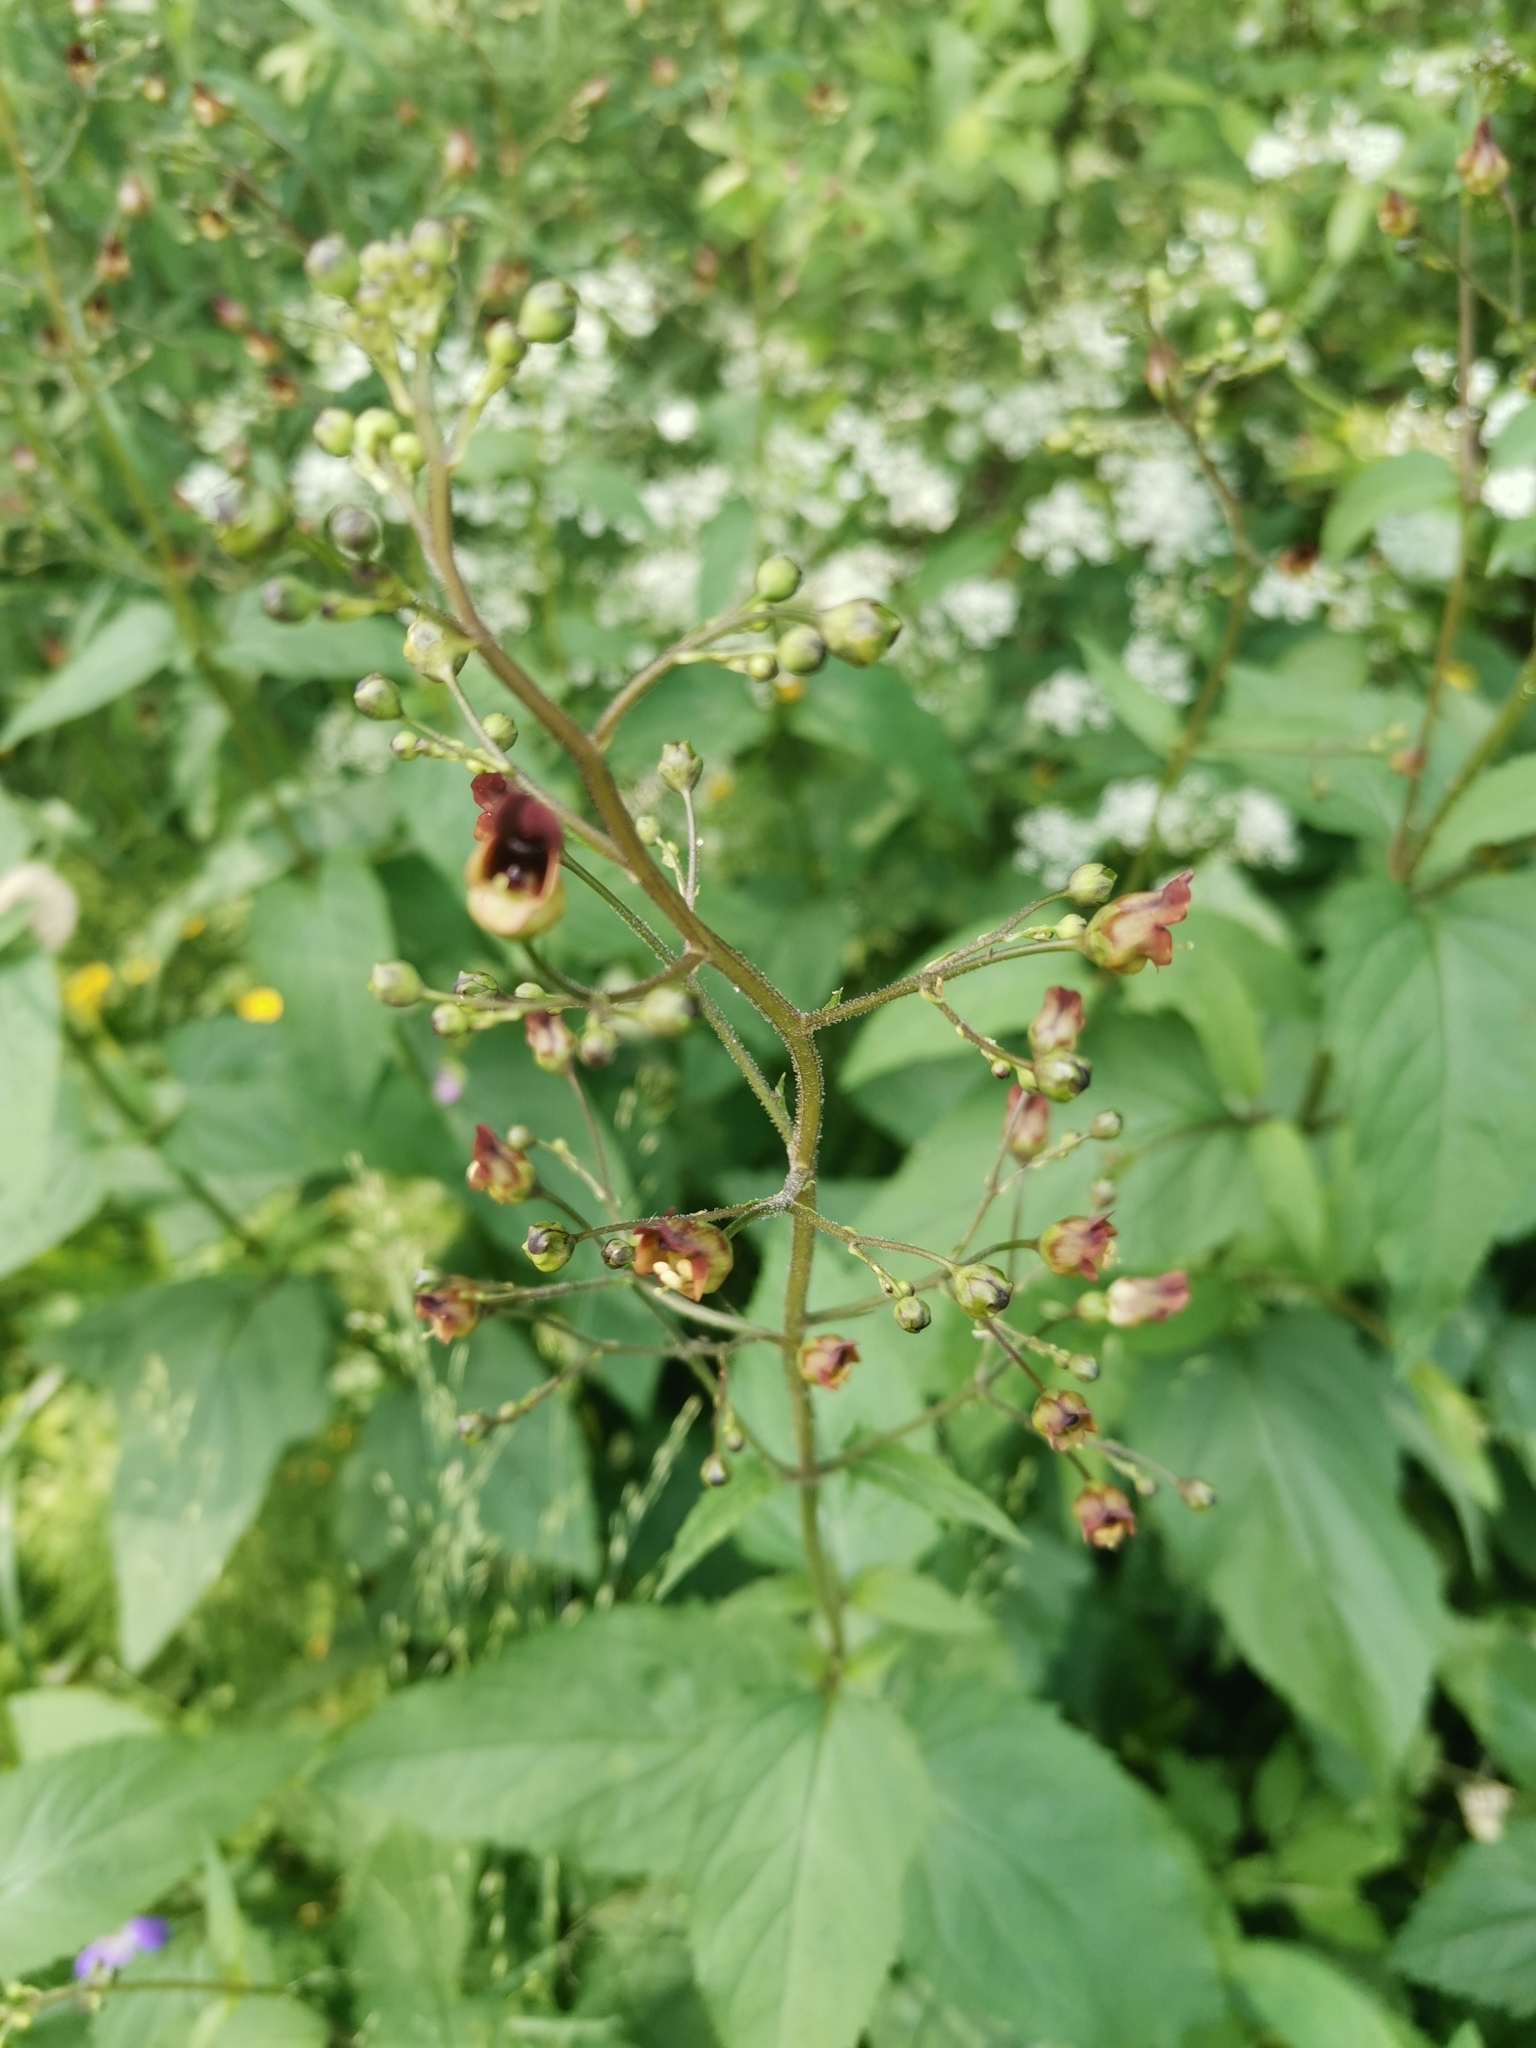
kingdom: Plantae
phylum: Tracheophyta
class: Magnoliopsida
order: Lamiales
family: Scrophulariaceae
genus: Scrophularia
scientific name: Scrophularia nodosa
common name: Common figwort
